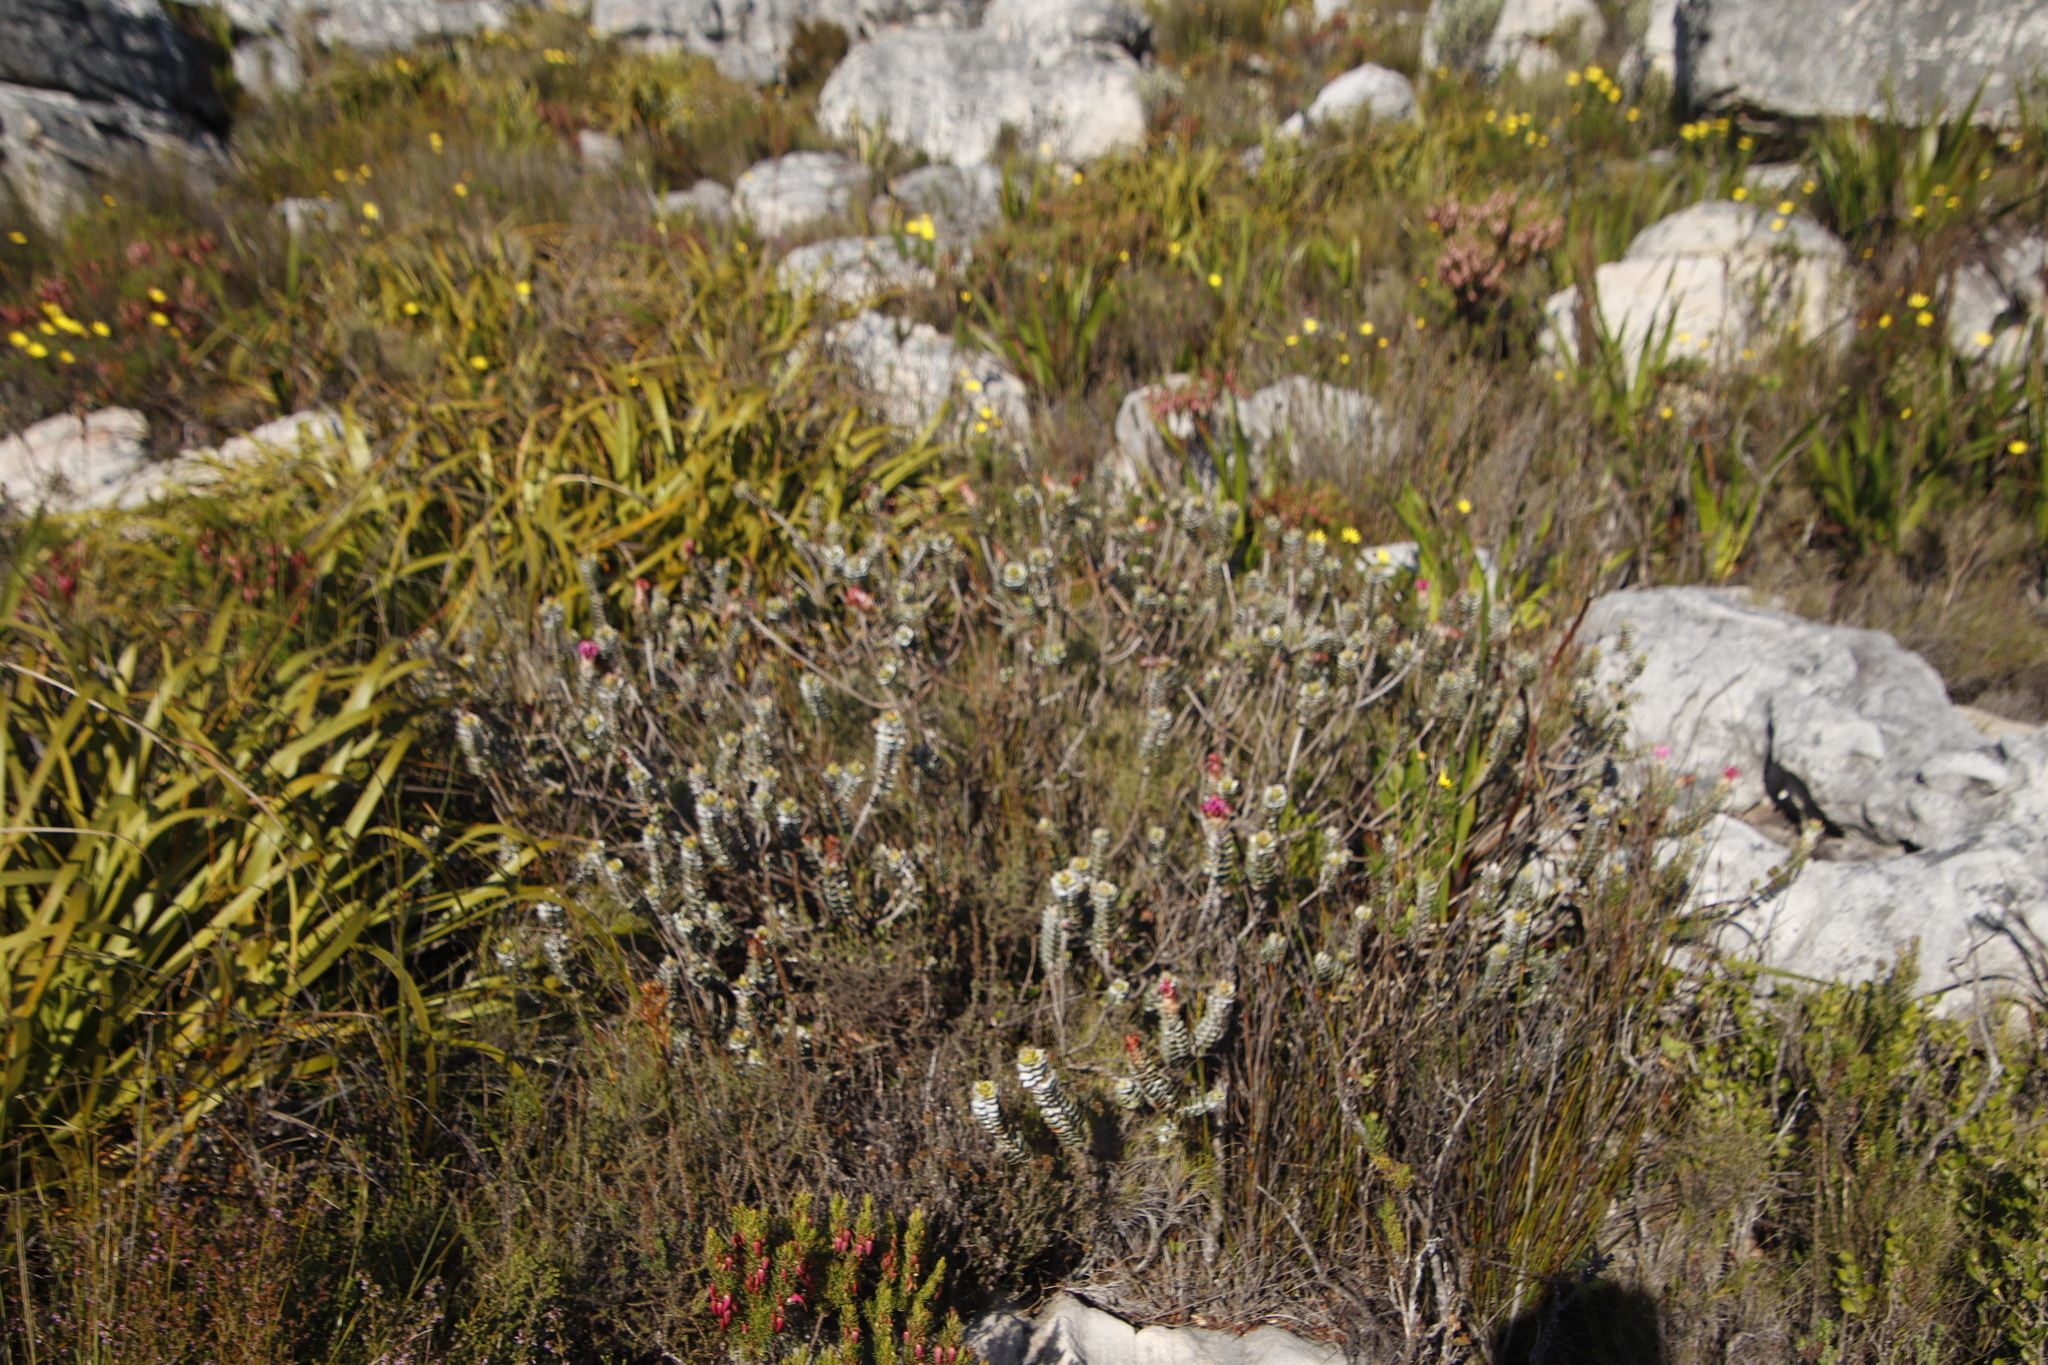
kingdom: Plantae
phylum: Tracheophyta
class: Magnoliopsida
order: Myrtales
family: Penaeaceae
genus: Saltera
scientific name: Saltera sarcocolla
